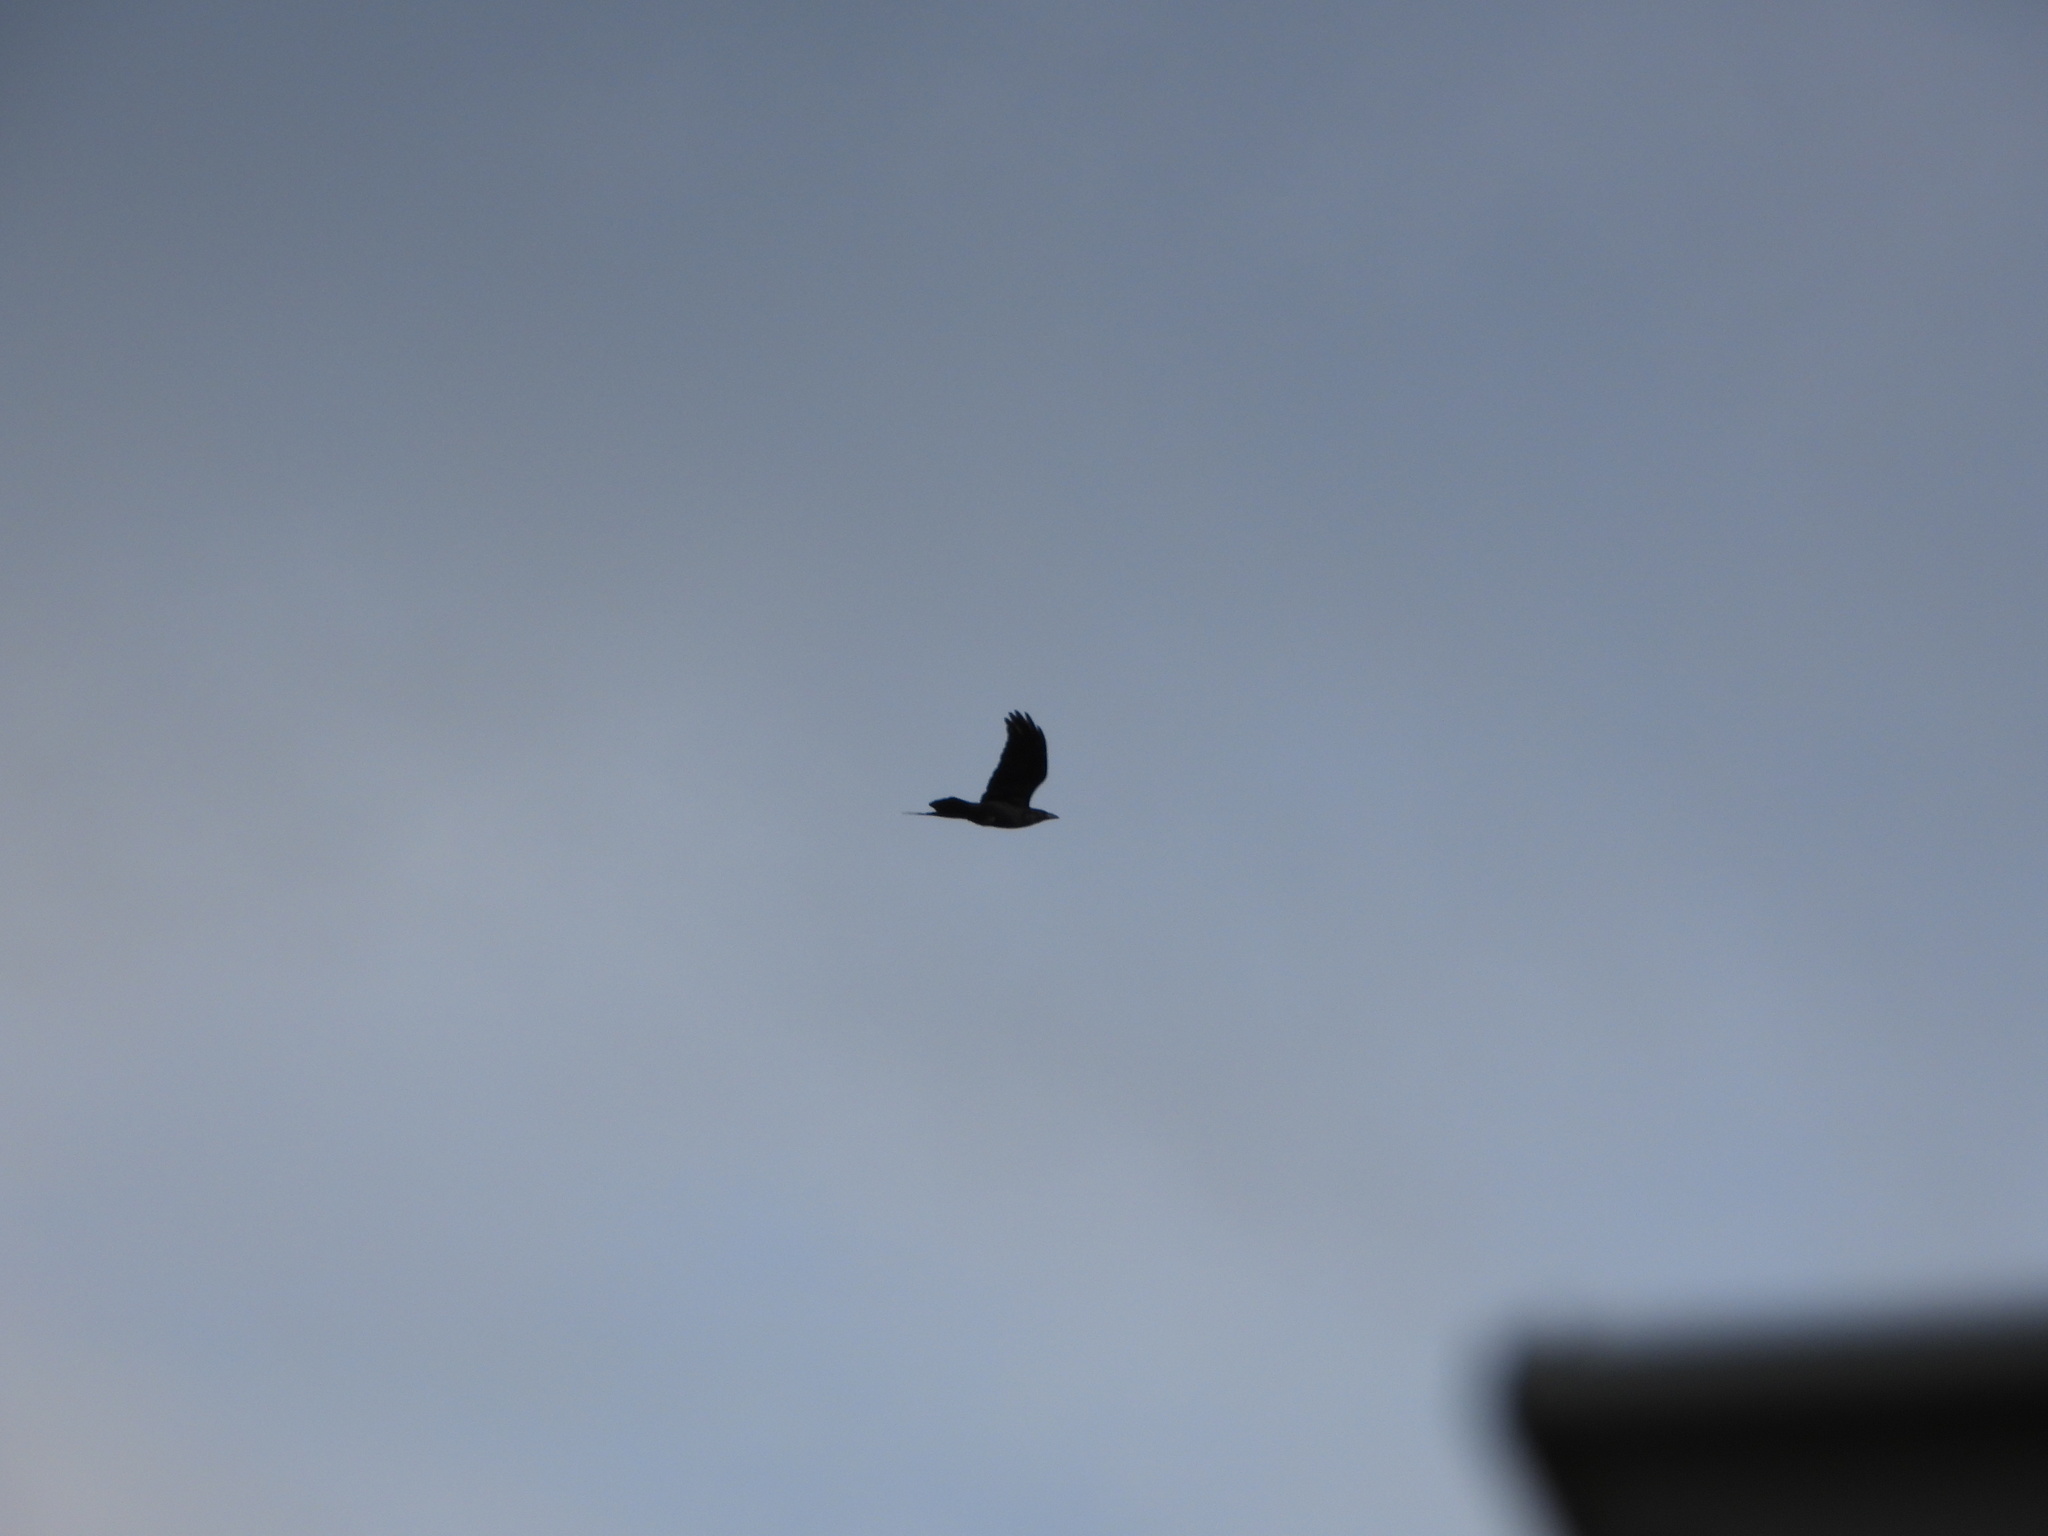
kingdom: Animalia
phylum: Chordata
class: Aves
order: Passeriformes
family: Corvidae
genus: Corvus
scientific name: Corvus corax
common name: Common raven
